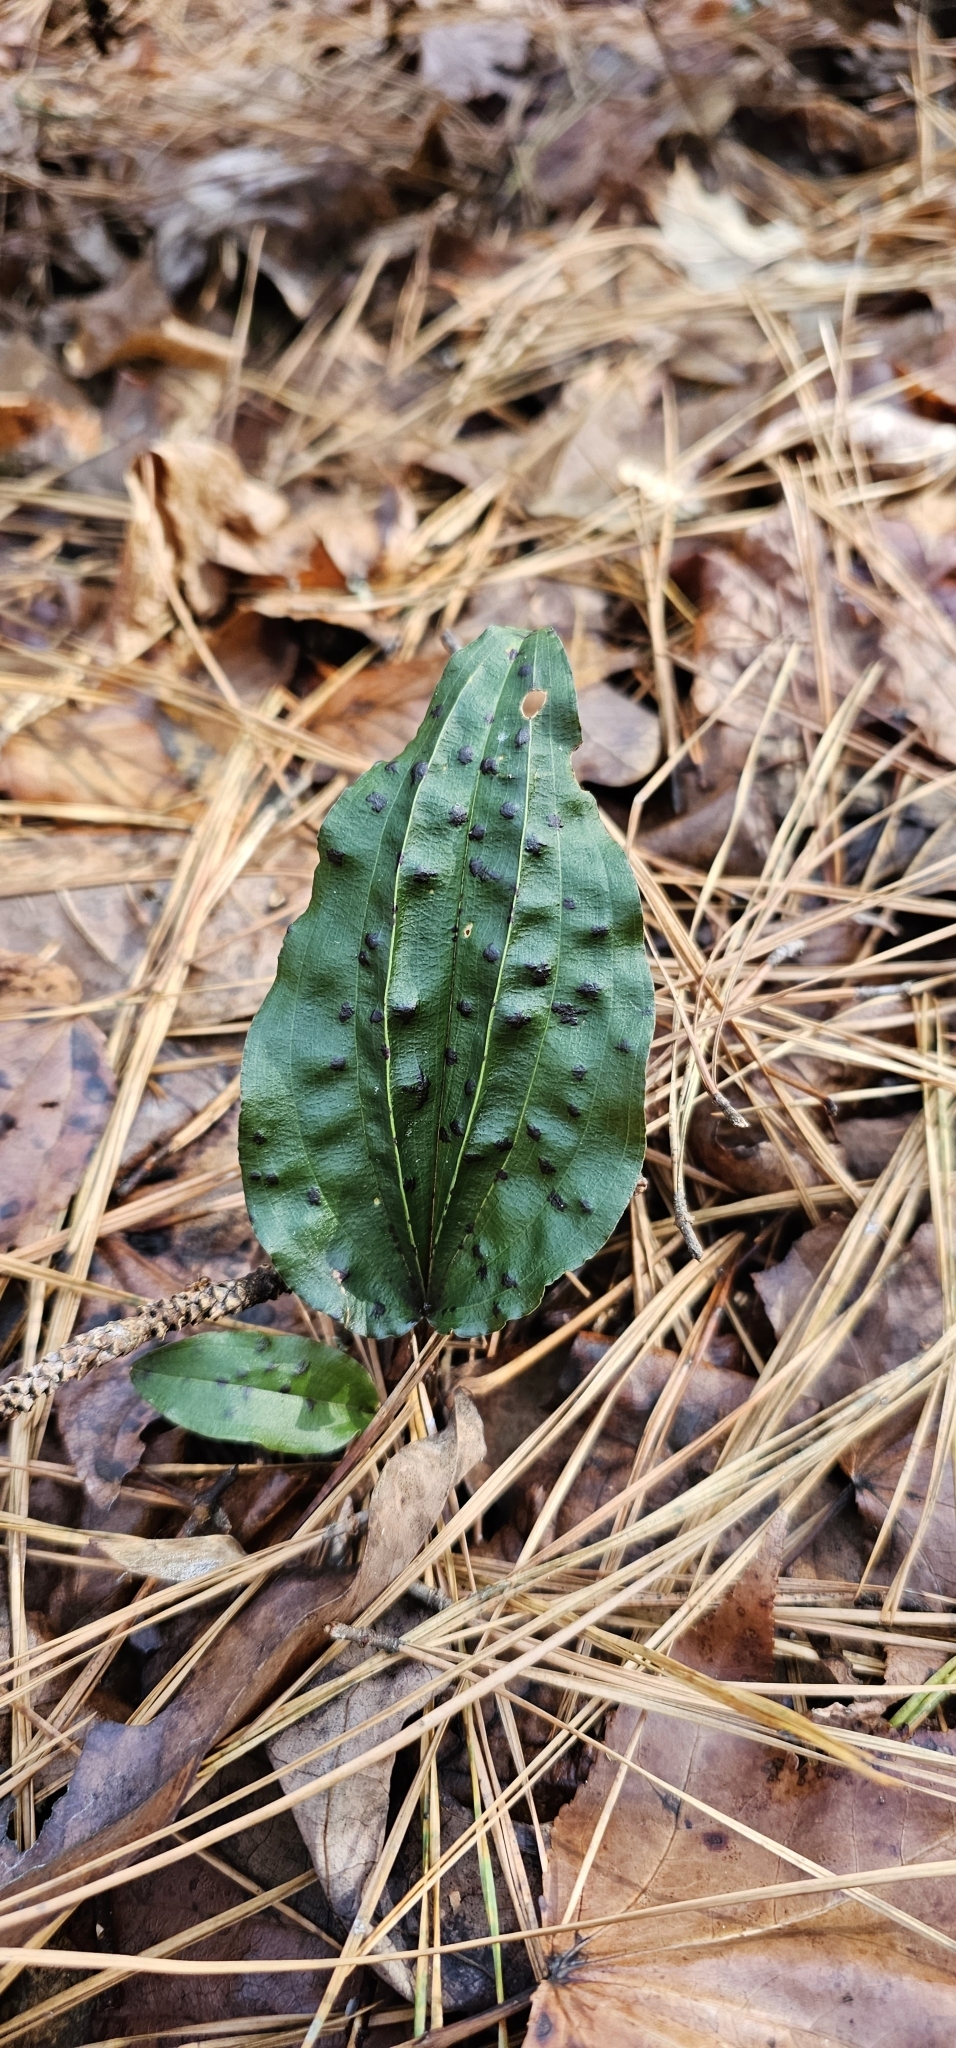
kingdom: Plantae
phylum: Tracheophyta
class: Liliopsida
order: Asparagales
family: Orchidaceae
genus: Tipularia
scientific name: Tipularia discolor
